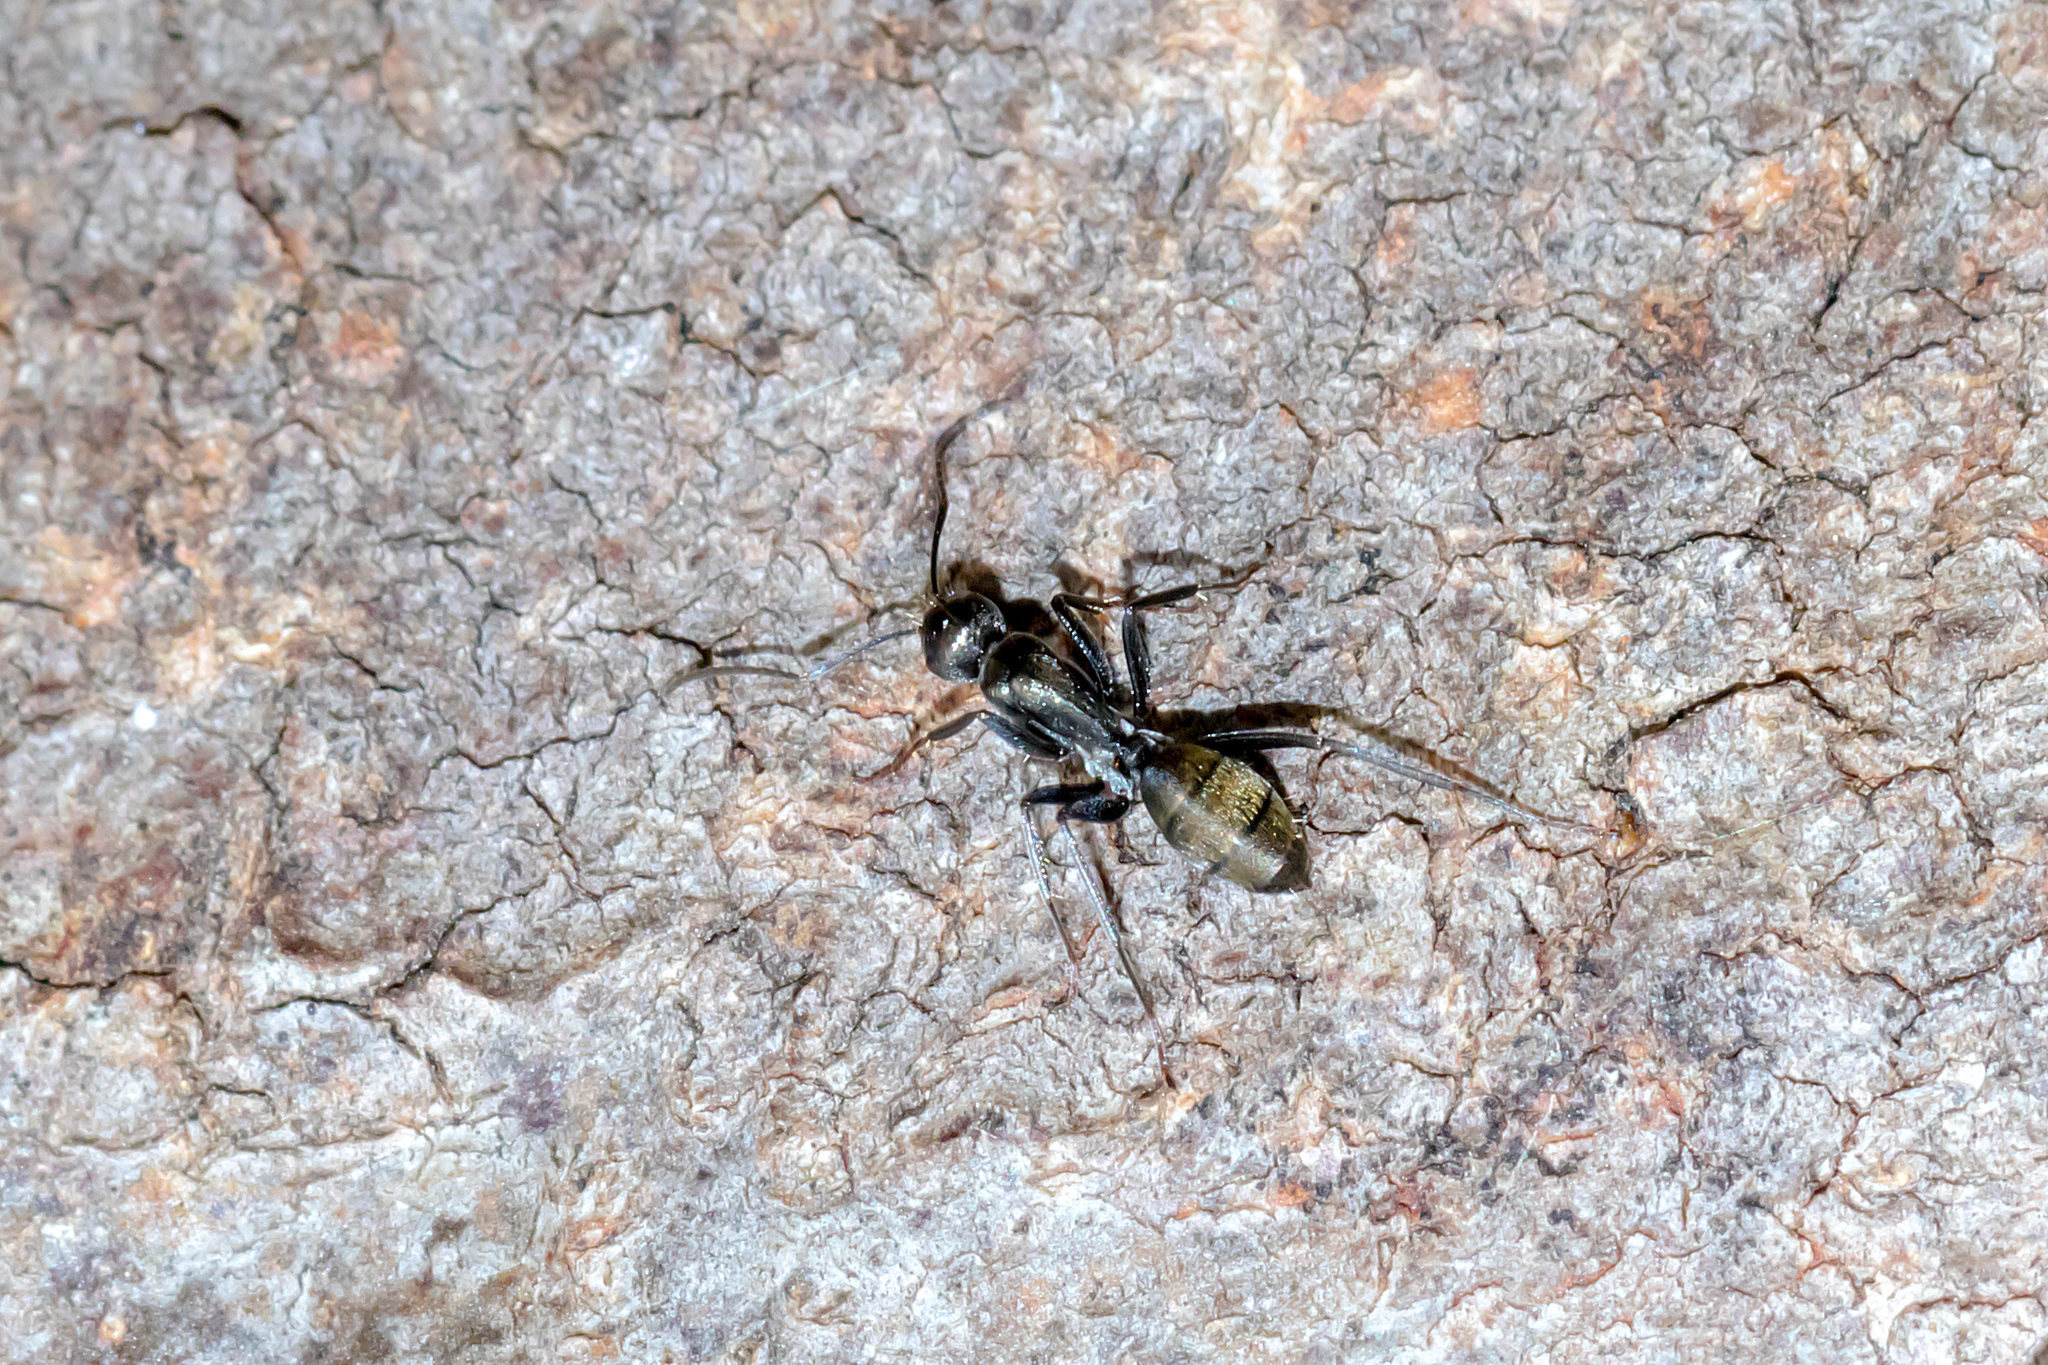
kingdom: Animalia
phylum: Arthropoda
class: Insecta
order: Hymenoptera
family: Formicidae
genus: Camponotus
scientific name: Camponotus aeneopilosus
